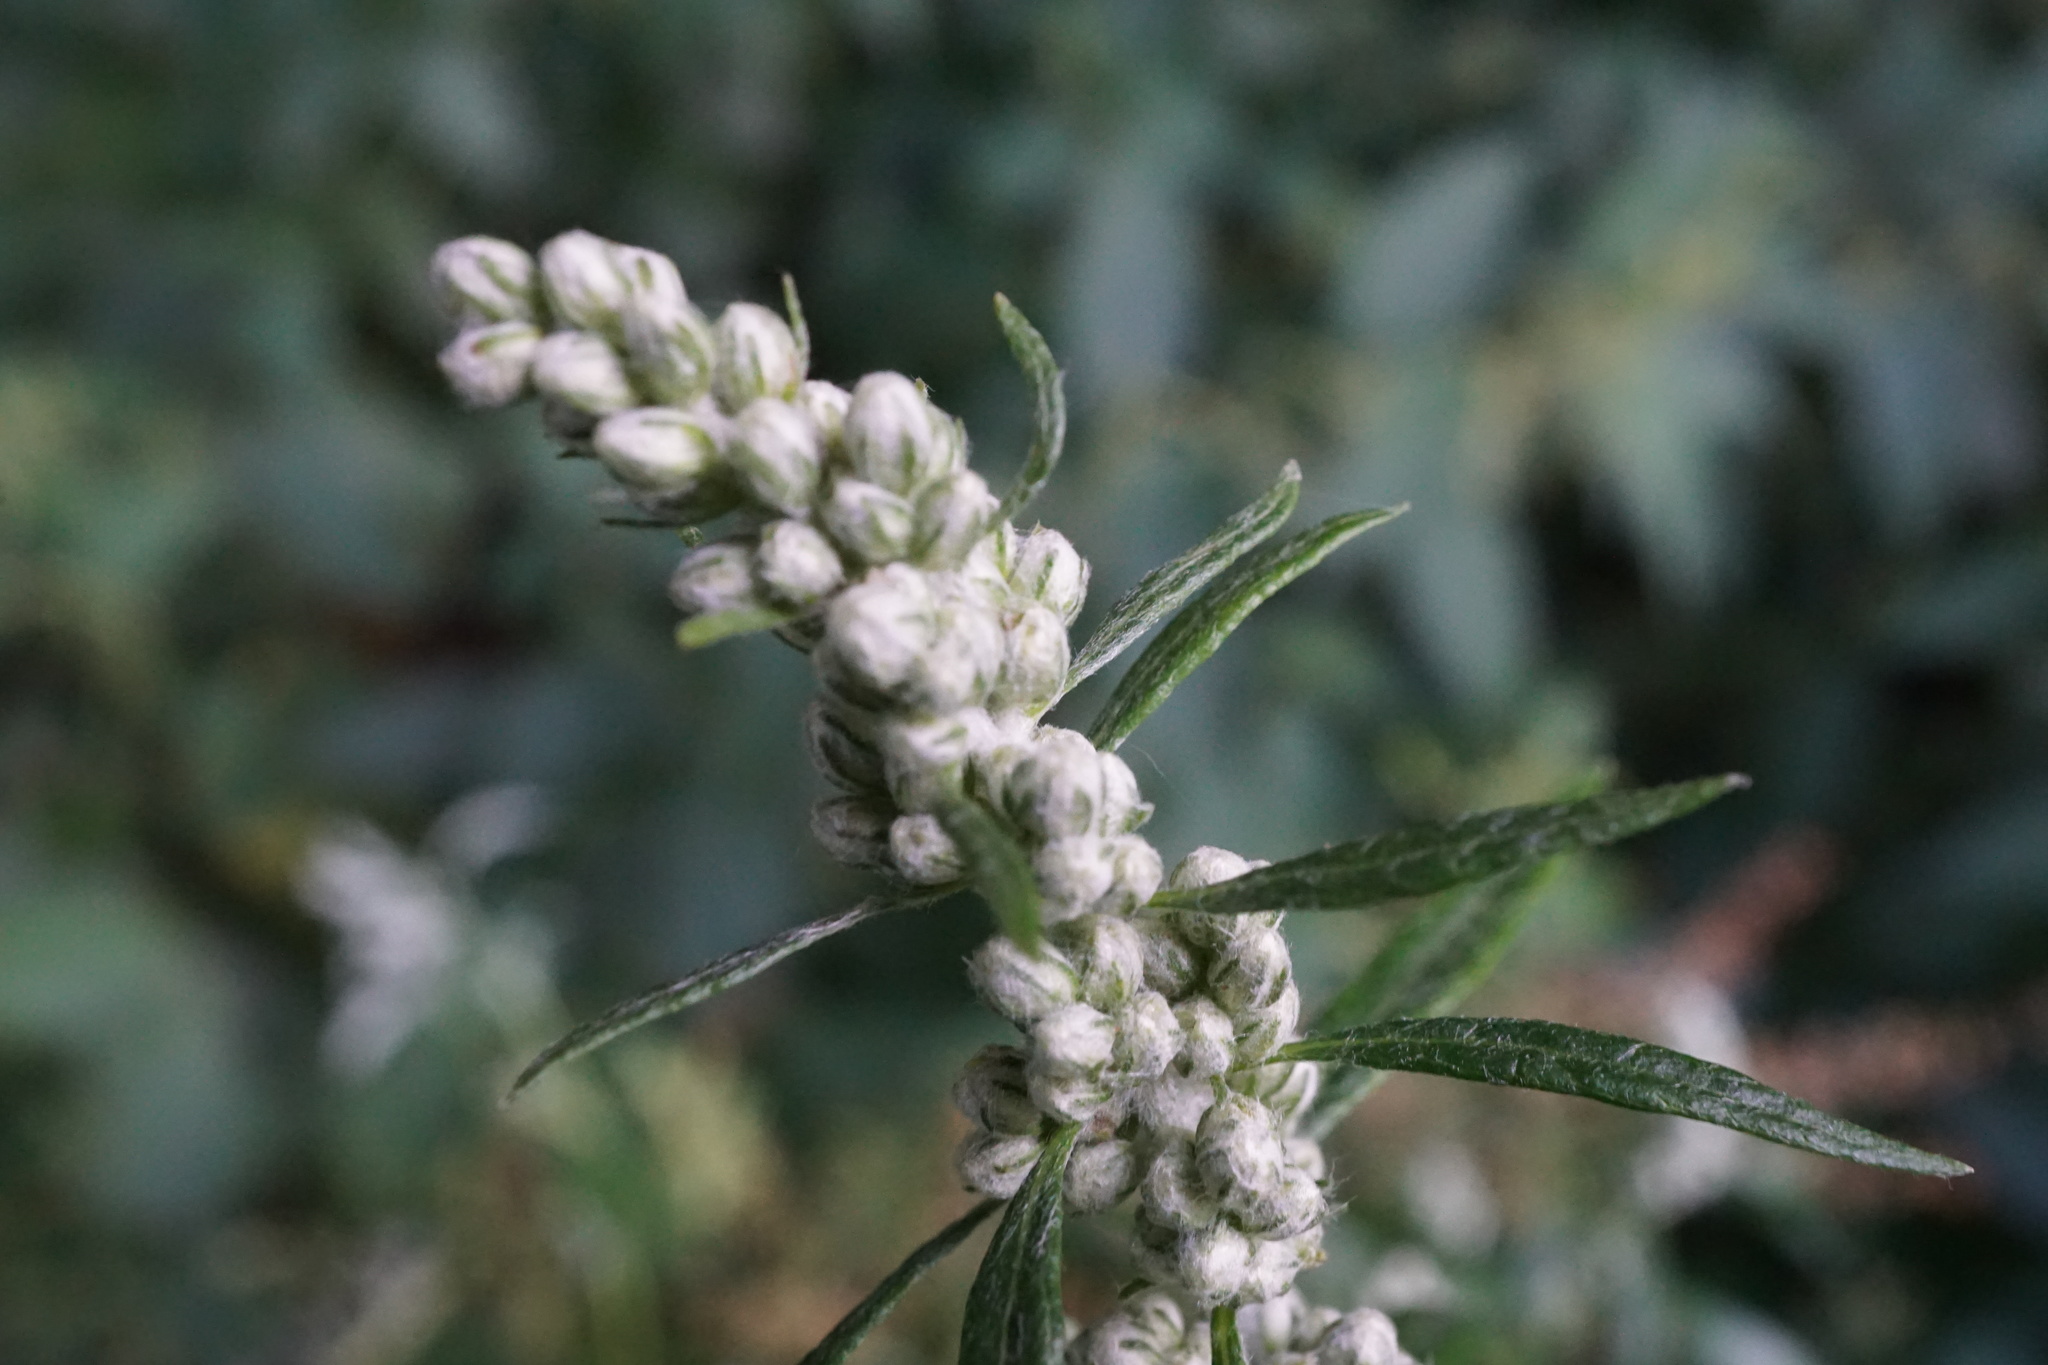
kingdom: Plantae
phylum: Tracheophyta
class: Magnoliopsida
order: Asterales
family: Asteraceae
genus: Artemisia
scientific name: Artemisia vulgaris
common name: Mugwort
